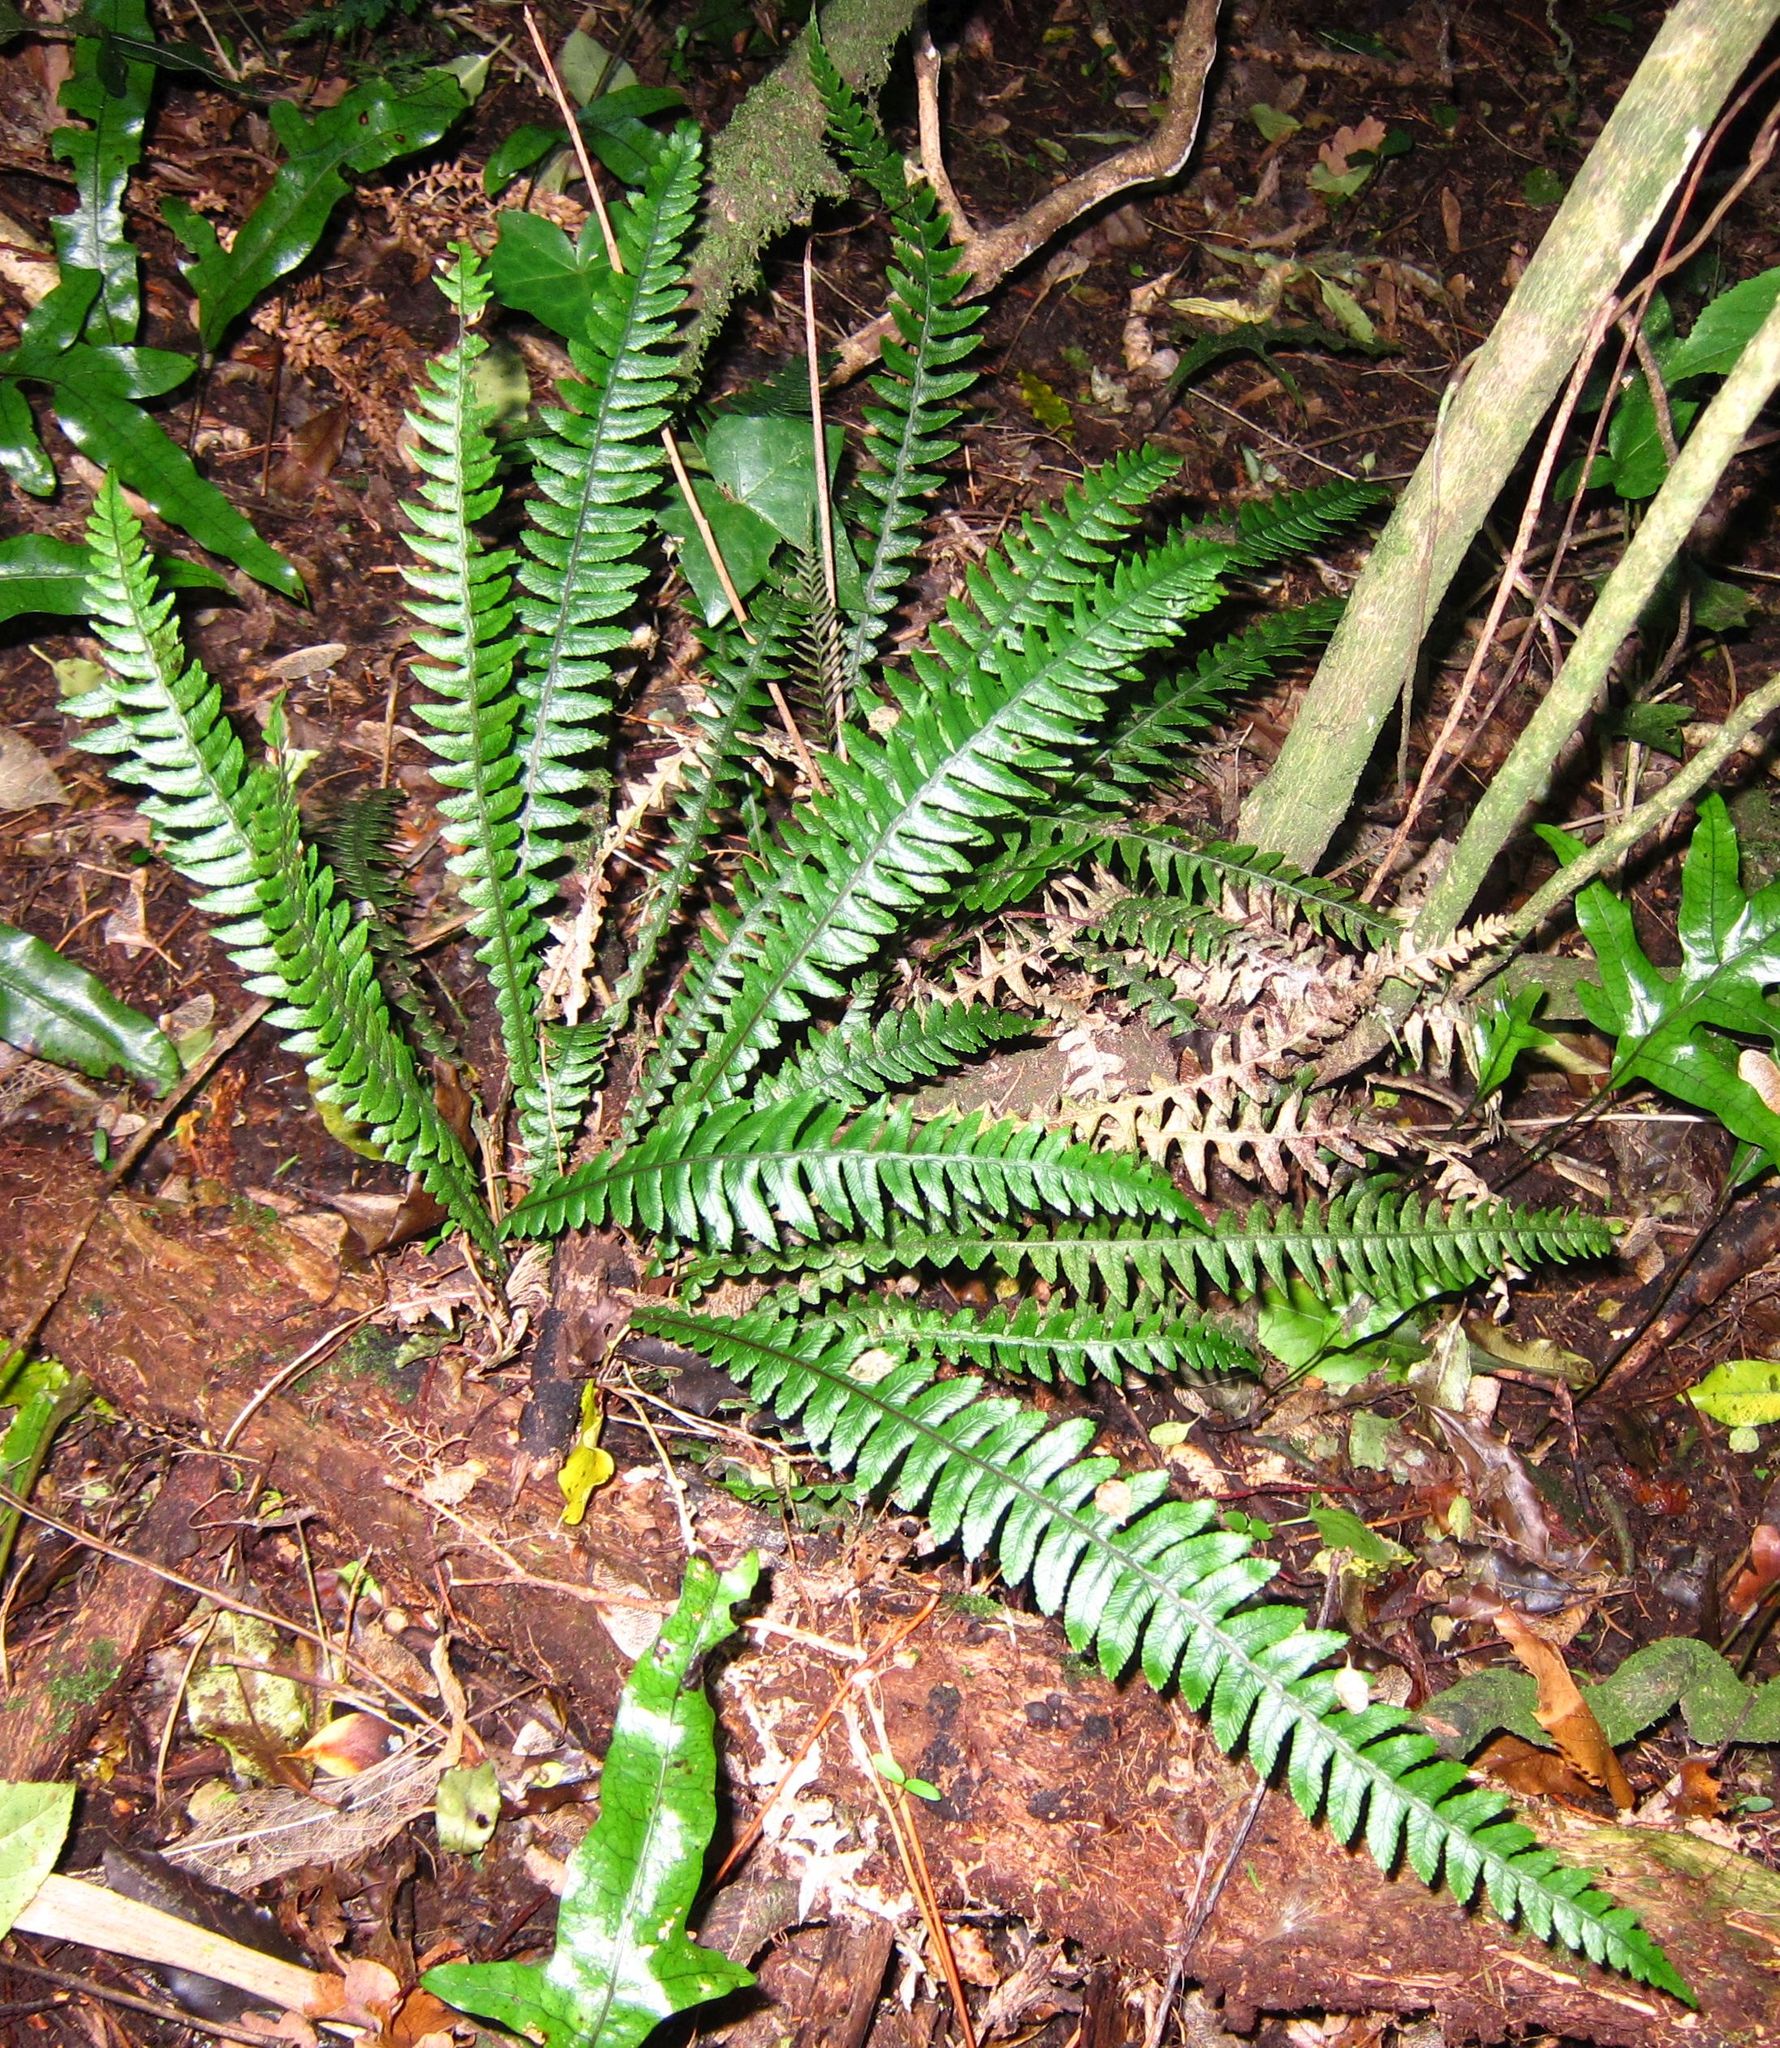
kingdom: Plantae
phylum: Tracheophyta
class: Polypodiopsida
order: Polypodiales
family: Blechnaceae
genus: Austroblechnum
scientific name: Austroblechnum lanceolatum
